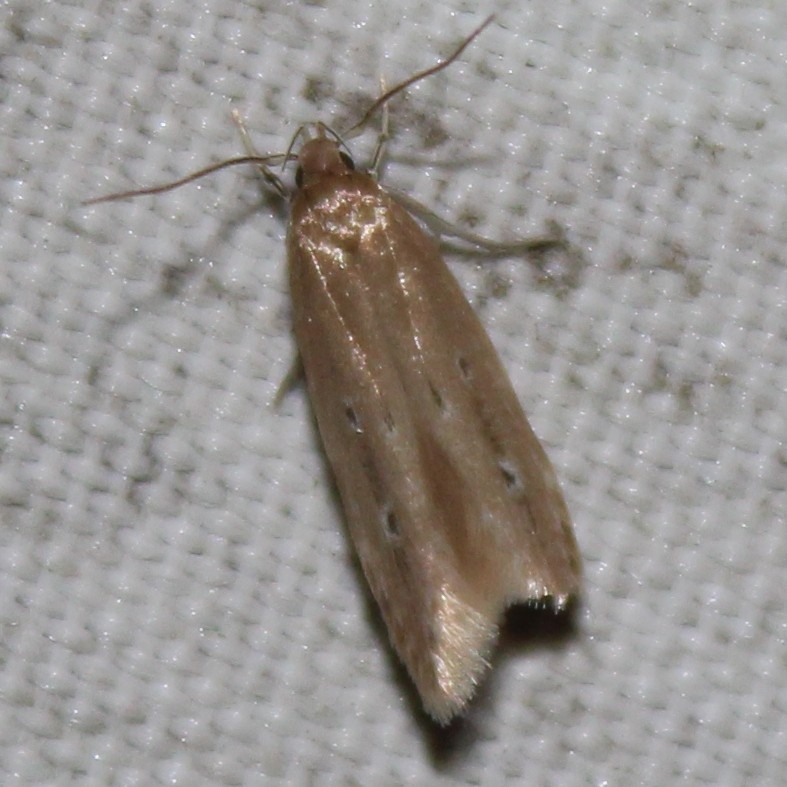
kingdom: Animalia
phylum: Arthropoda
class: Insecta
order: Lepidoptera
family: Cosmopterigidae
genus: Limnaecia
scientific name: Limnaecia phragmitella
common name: Bulrush cosmet
